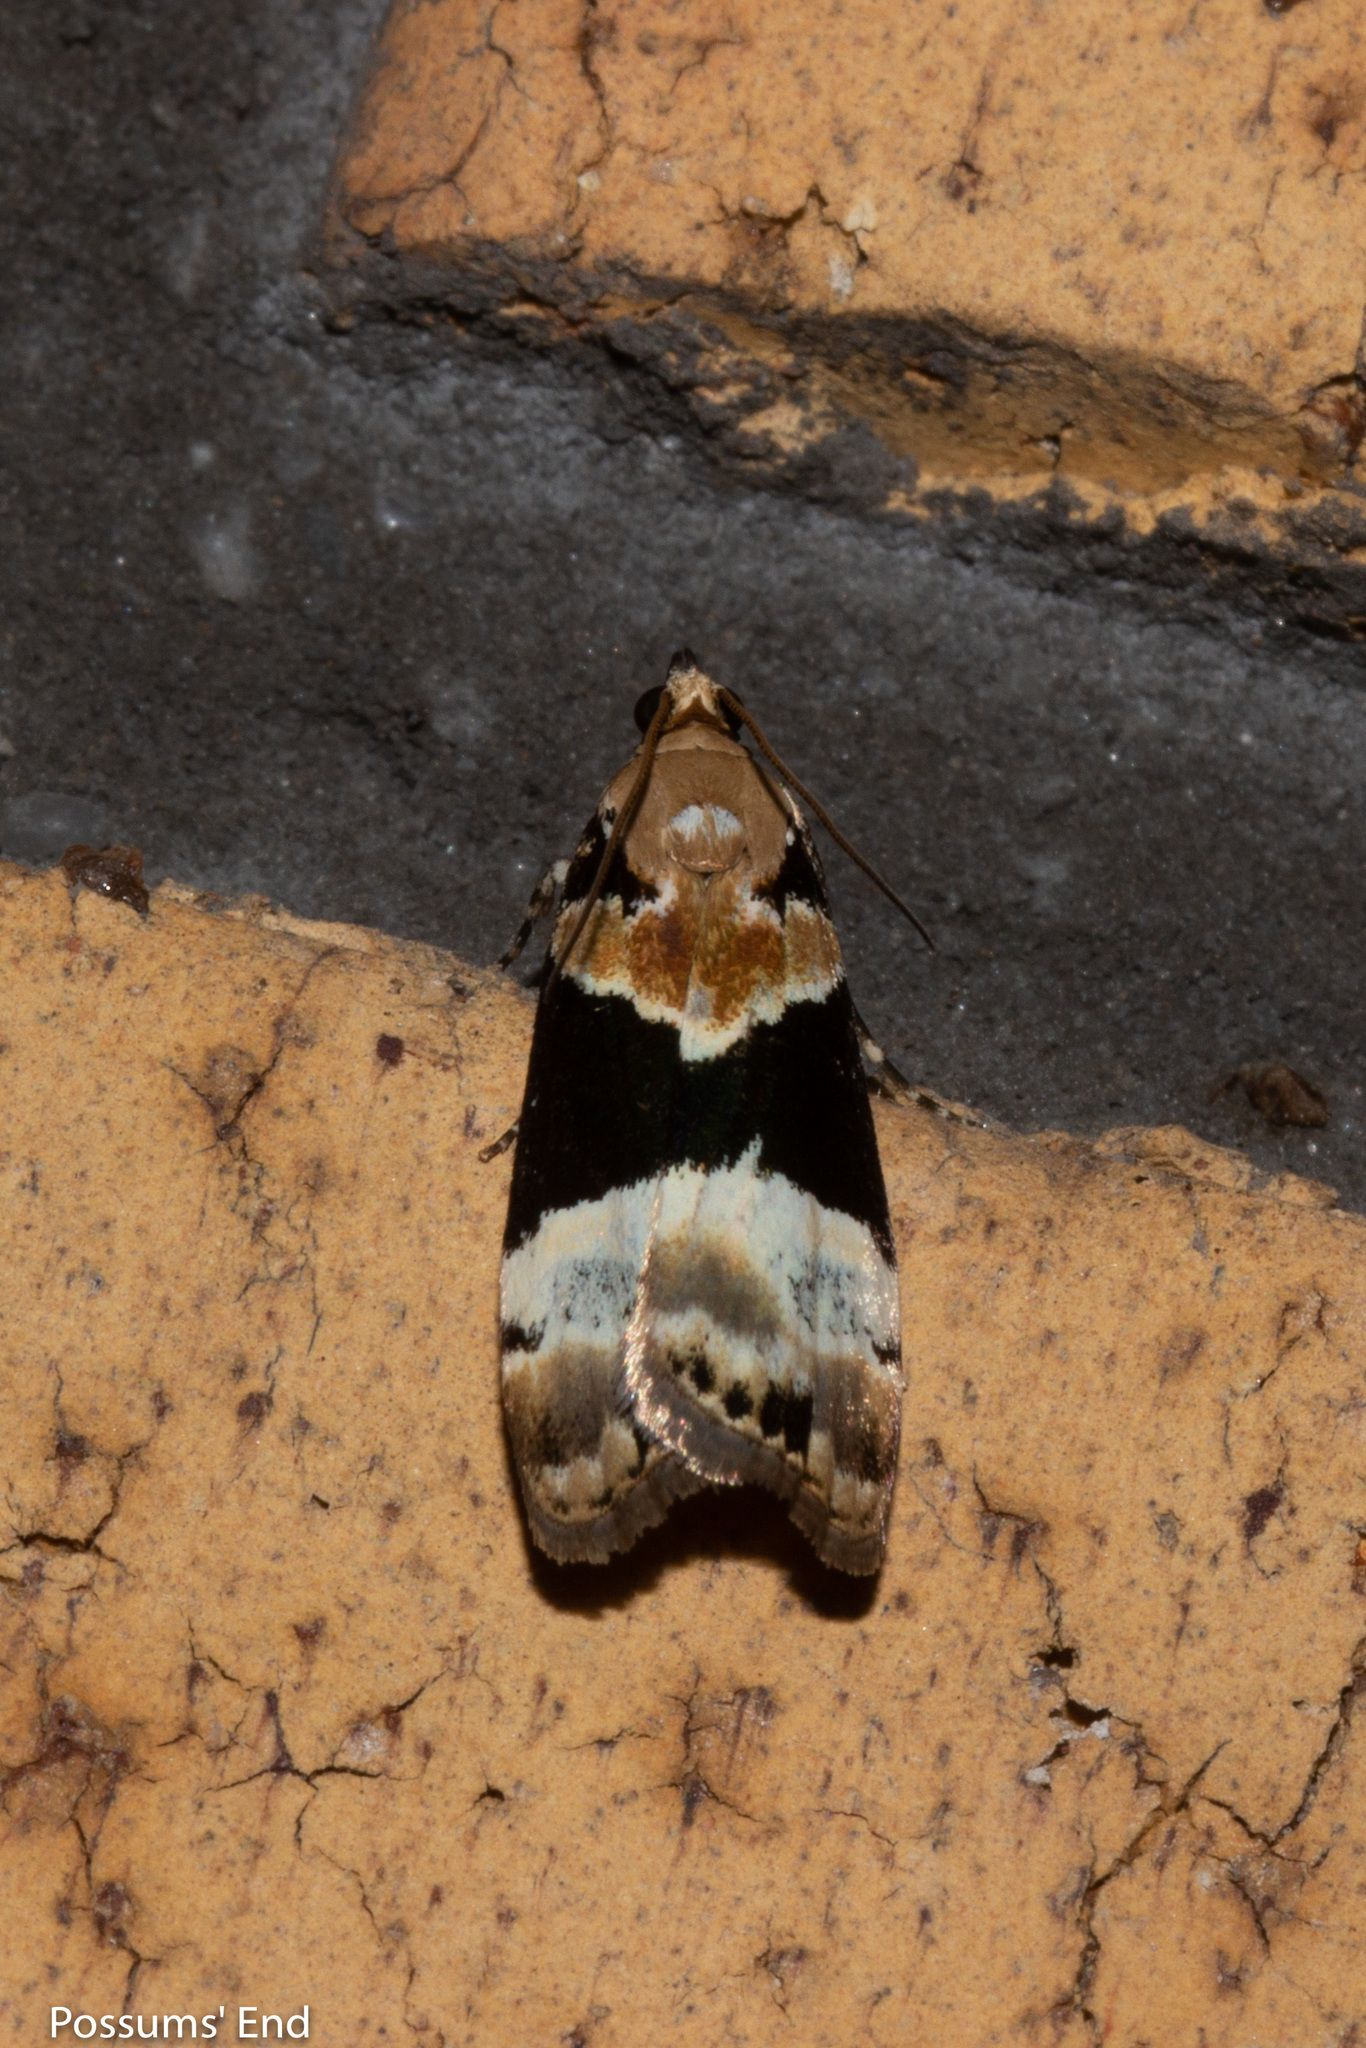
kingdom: Animalia
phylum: Arthropoda
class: Insecta
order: Lepidoptera
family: Crambidae
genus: Eudonia
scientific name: Eudonia aspidota
